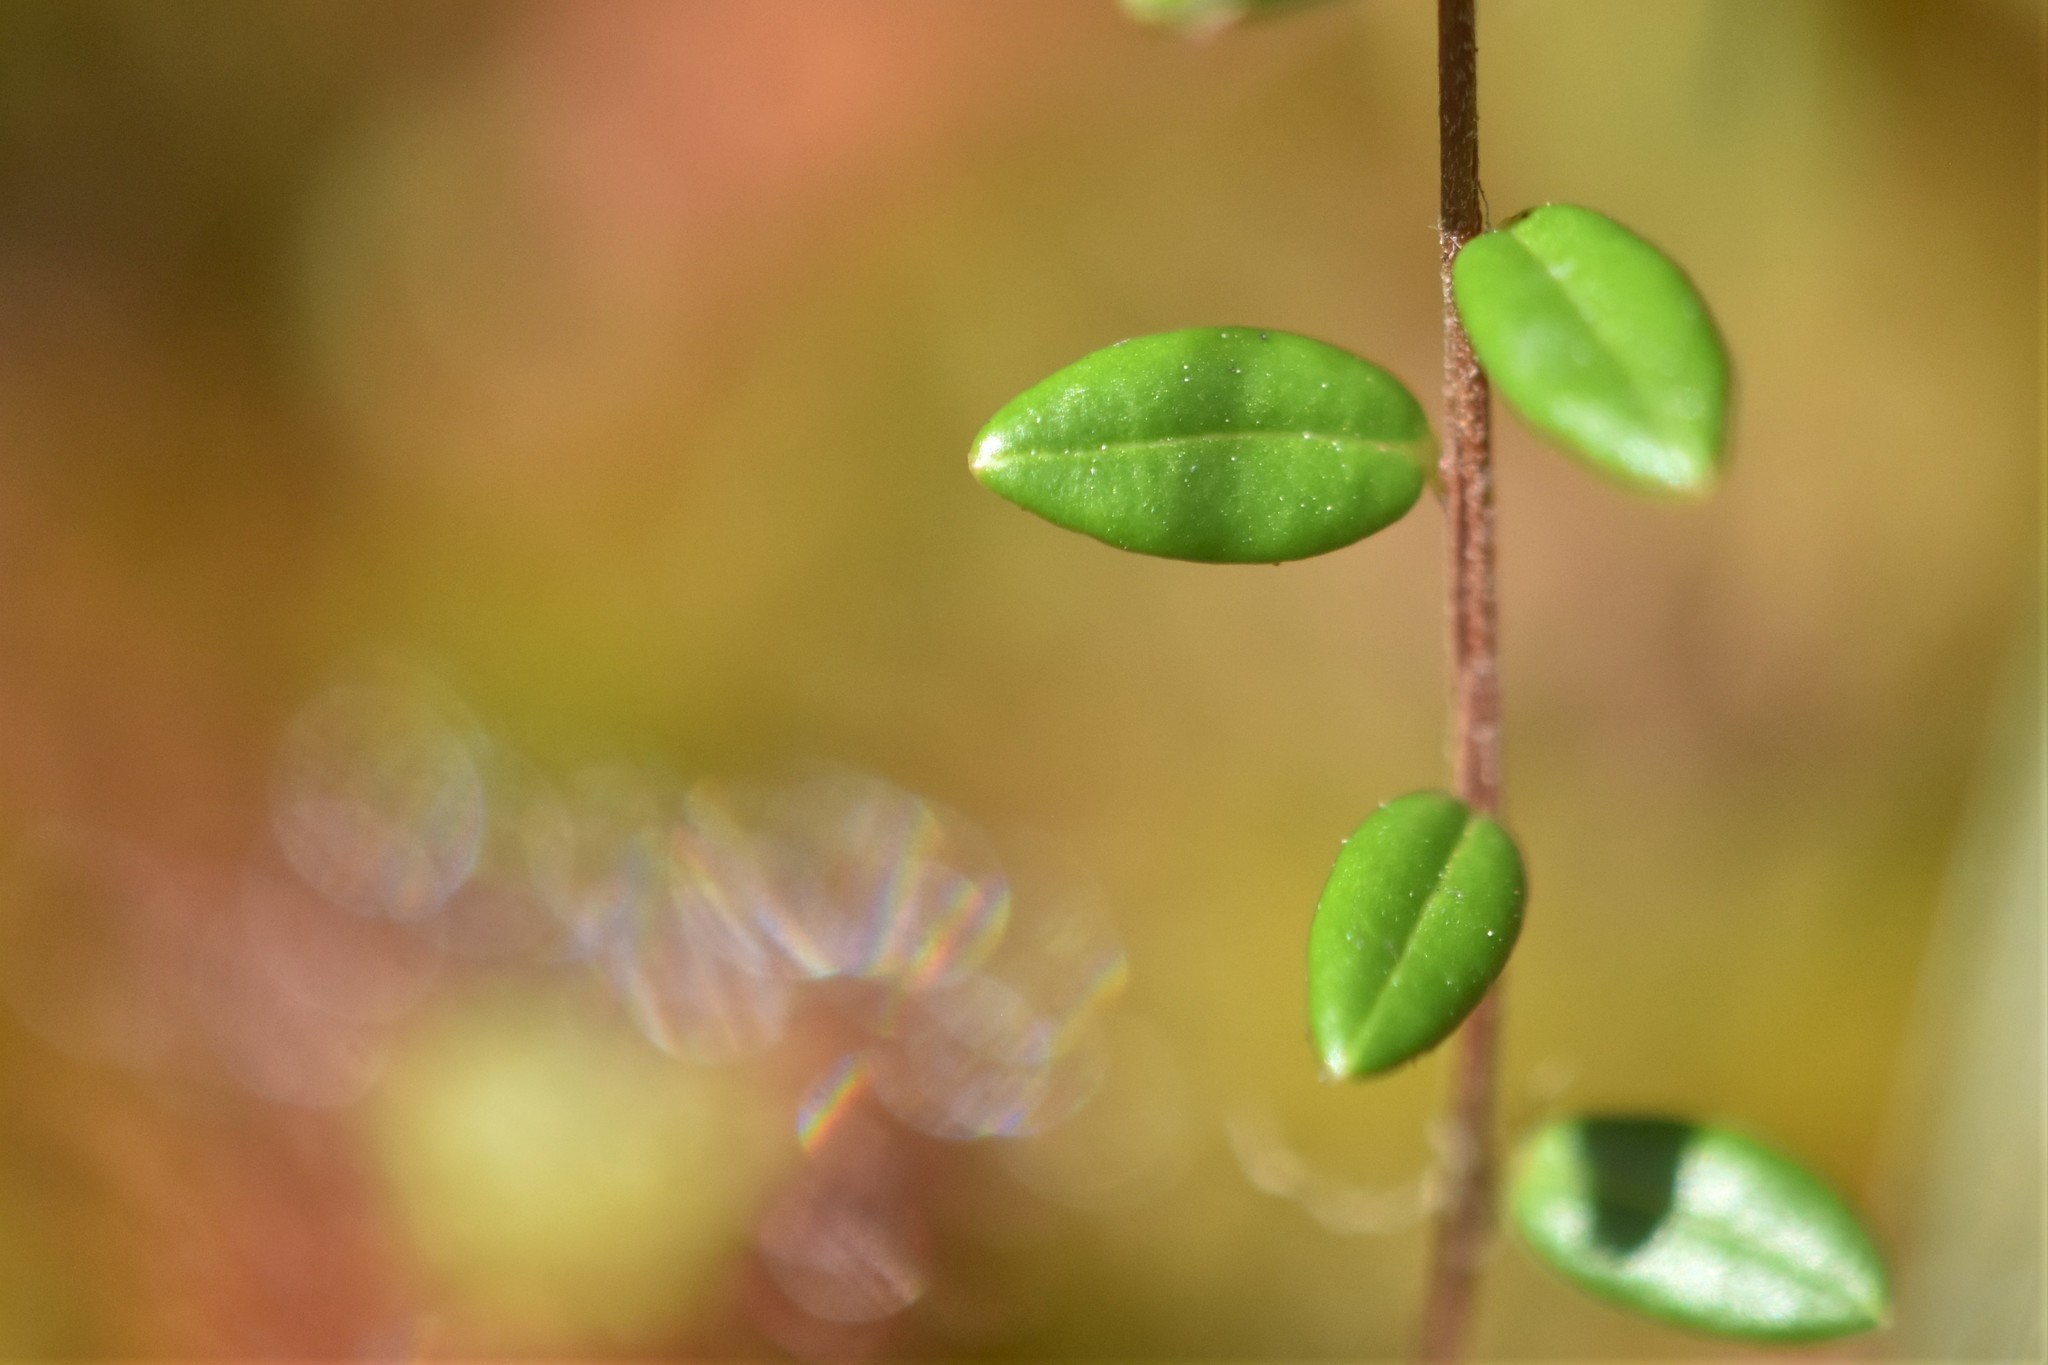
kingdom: Plantae
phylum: Tracheophyta
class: Magnoliopsida
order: Ericales
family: Ericaceae
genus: Vaccinium
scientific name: Vaccinium oxycoccos
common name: Cranberry
